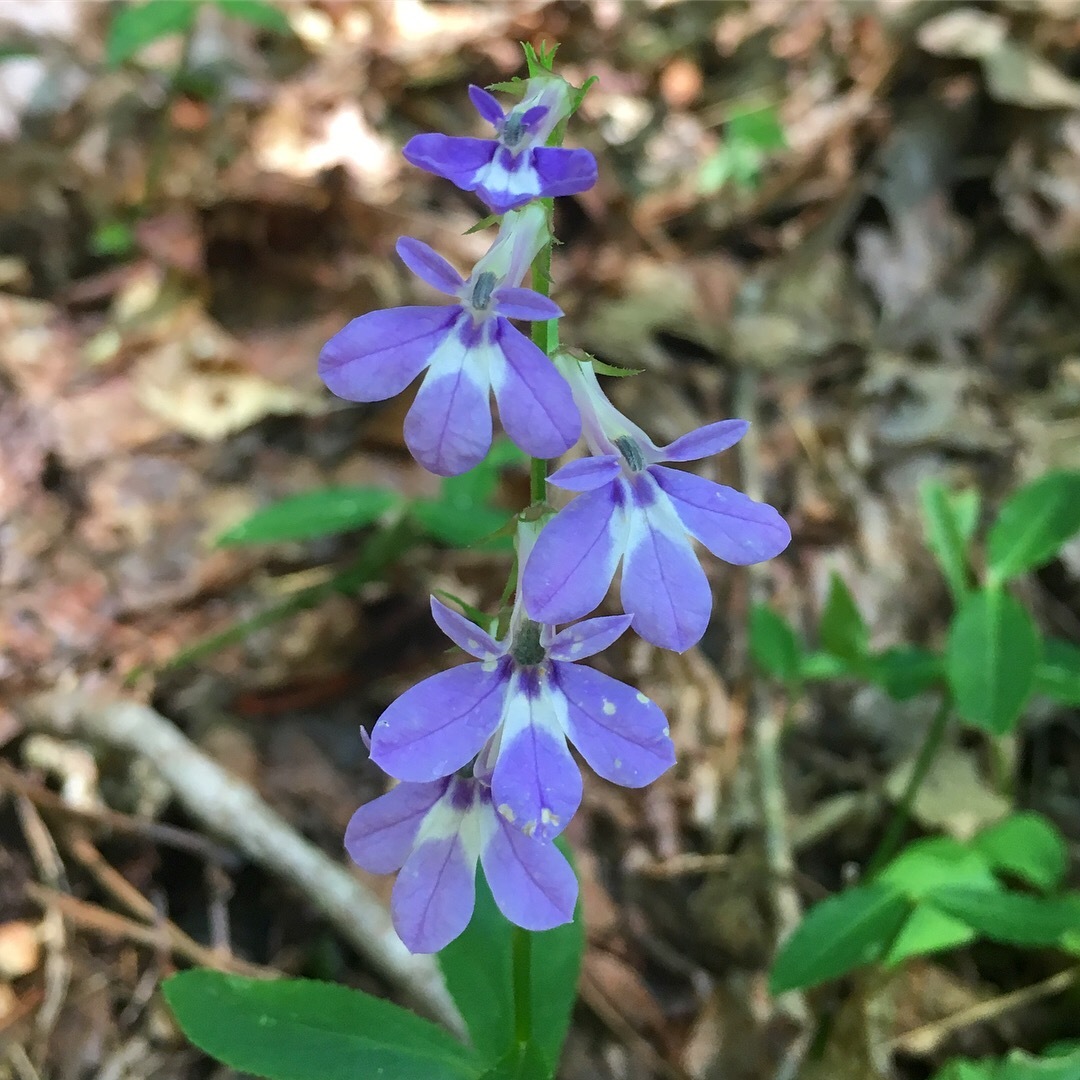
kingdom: Plantae
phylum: Tracheophyta
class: Magnoliopsida
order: Asterales
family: Campanulaceae
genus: Lobelia
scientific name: Lobelia puberula
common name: Purple dewdrop
